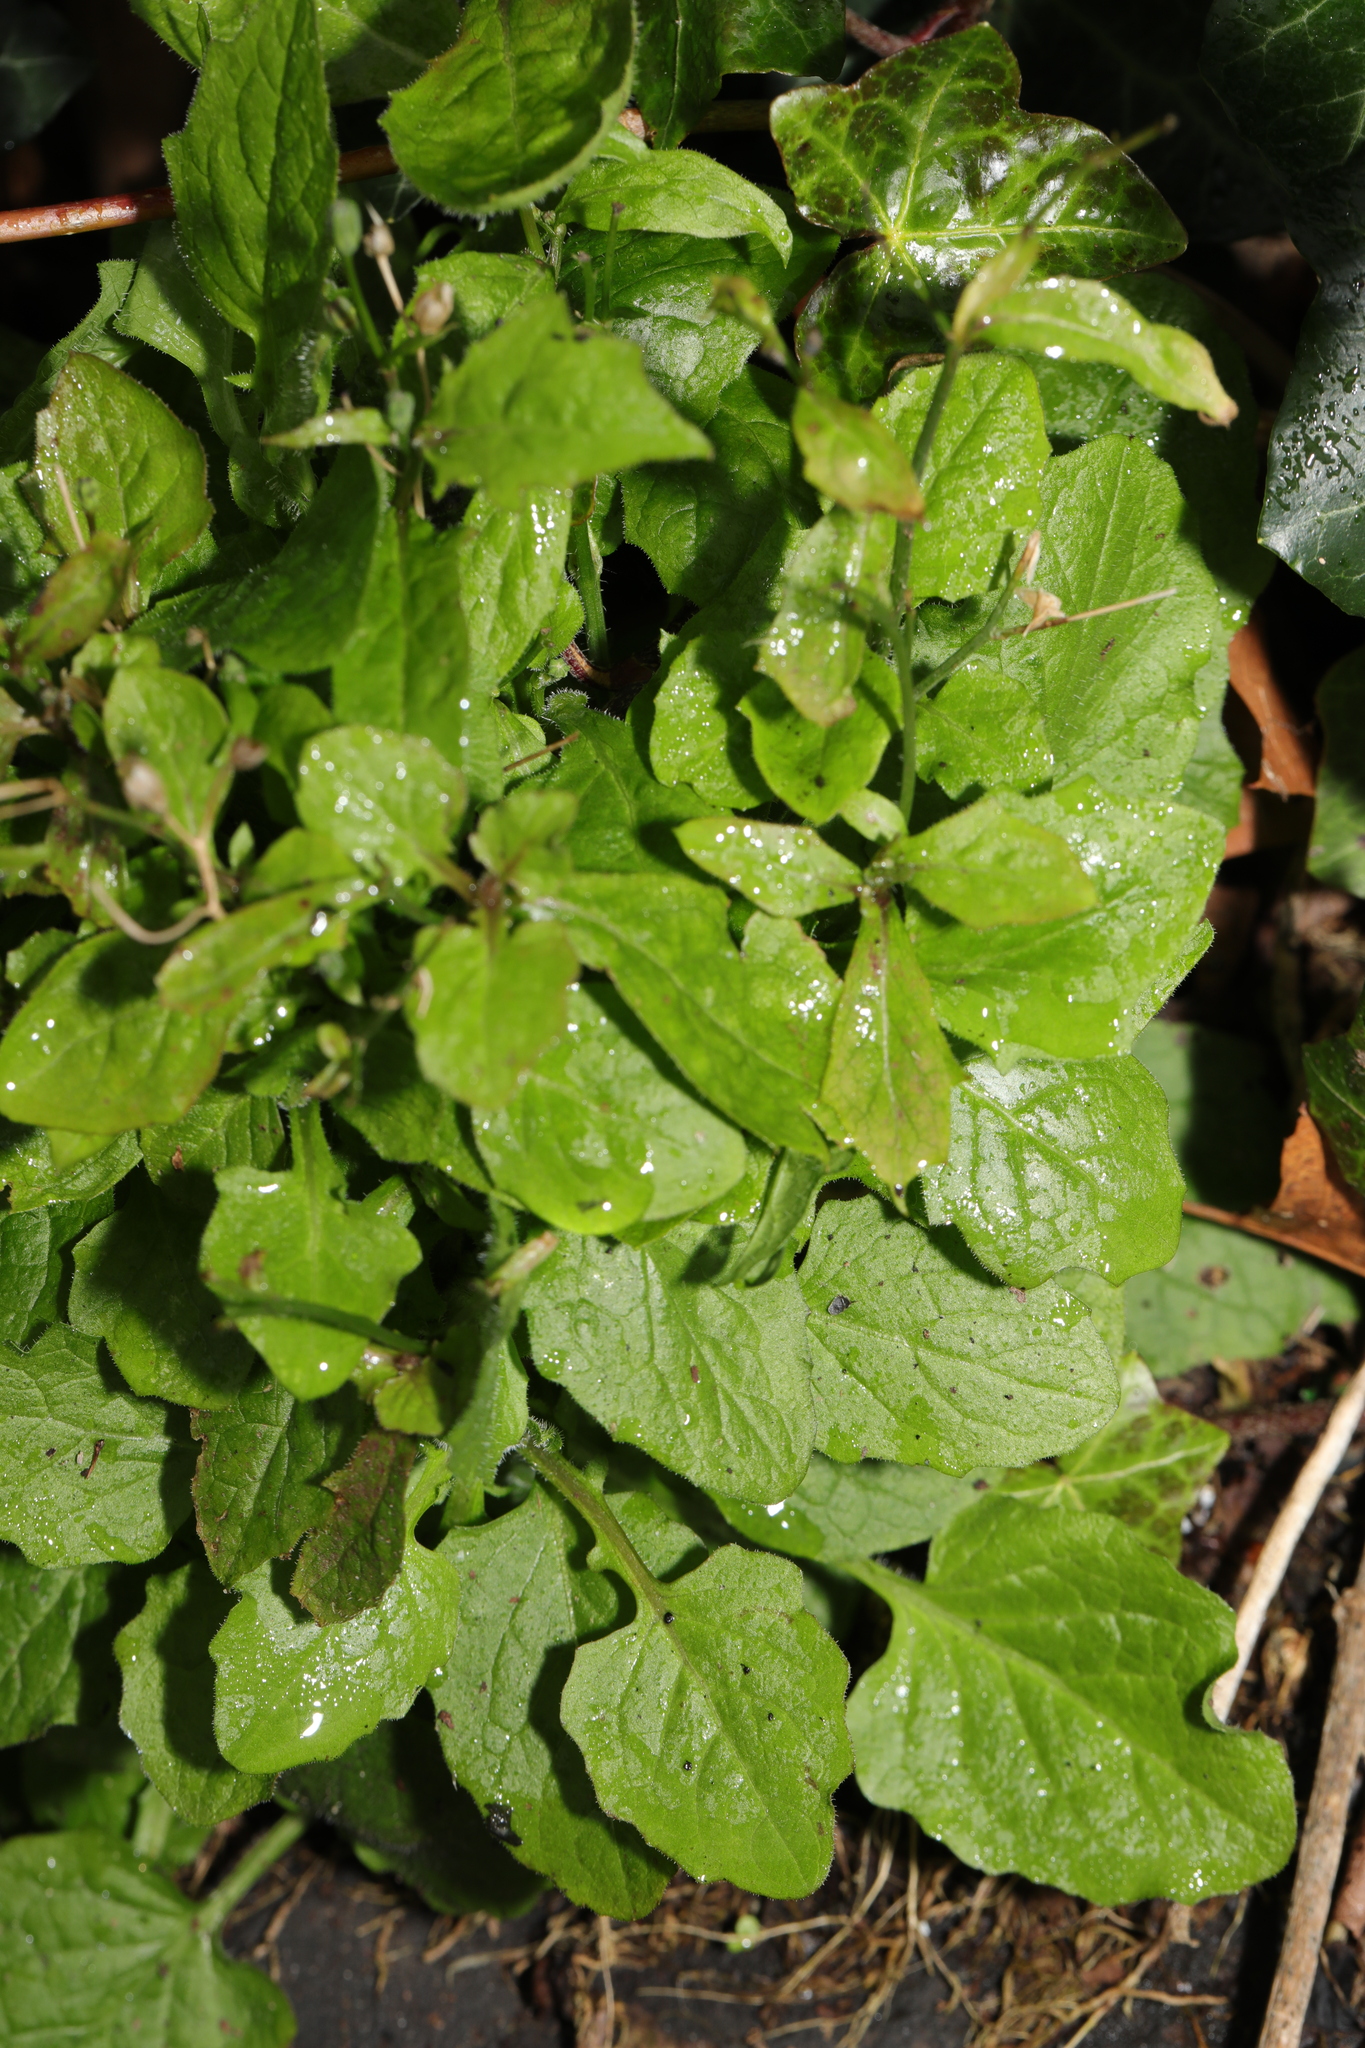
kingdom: Plantae
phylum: Tracheophyta
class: Magnoliopsida
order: Asterales
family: Asteraceae
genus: Lapsana
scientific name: Lapsana communis
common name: Nipplewort
